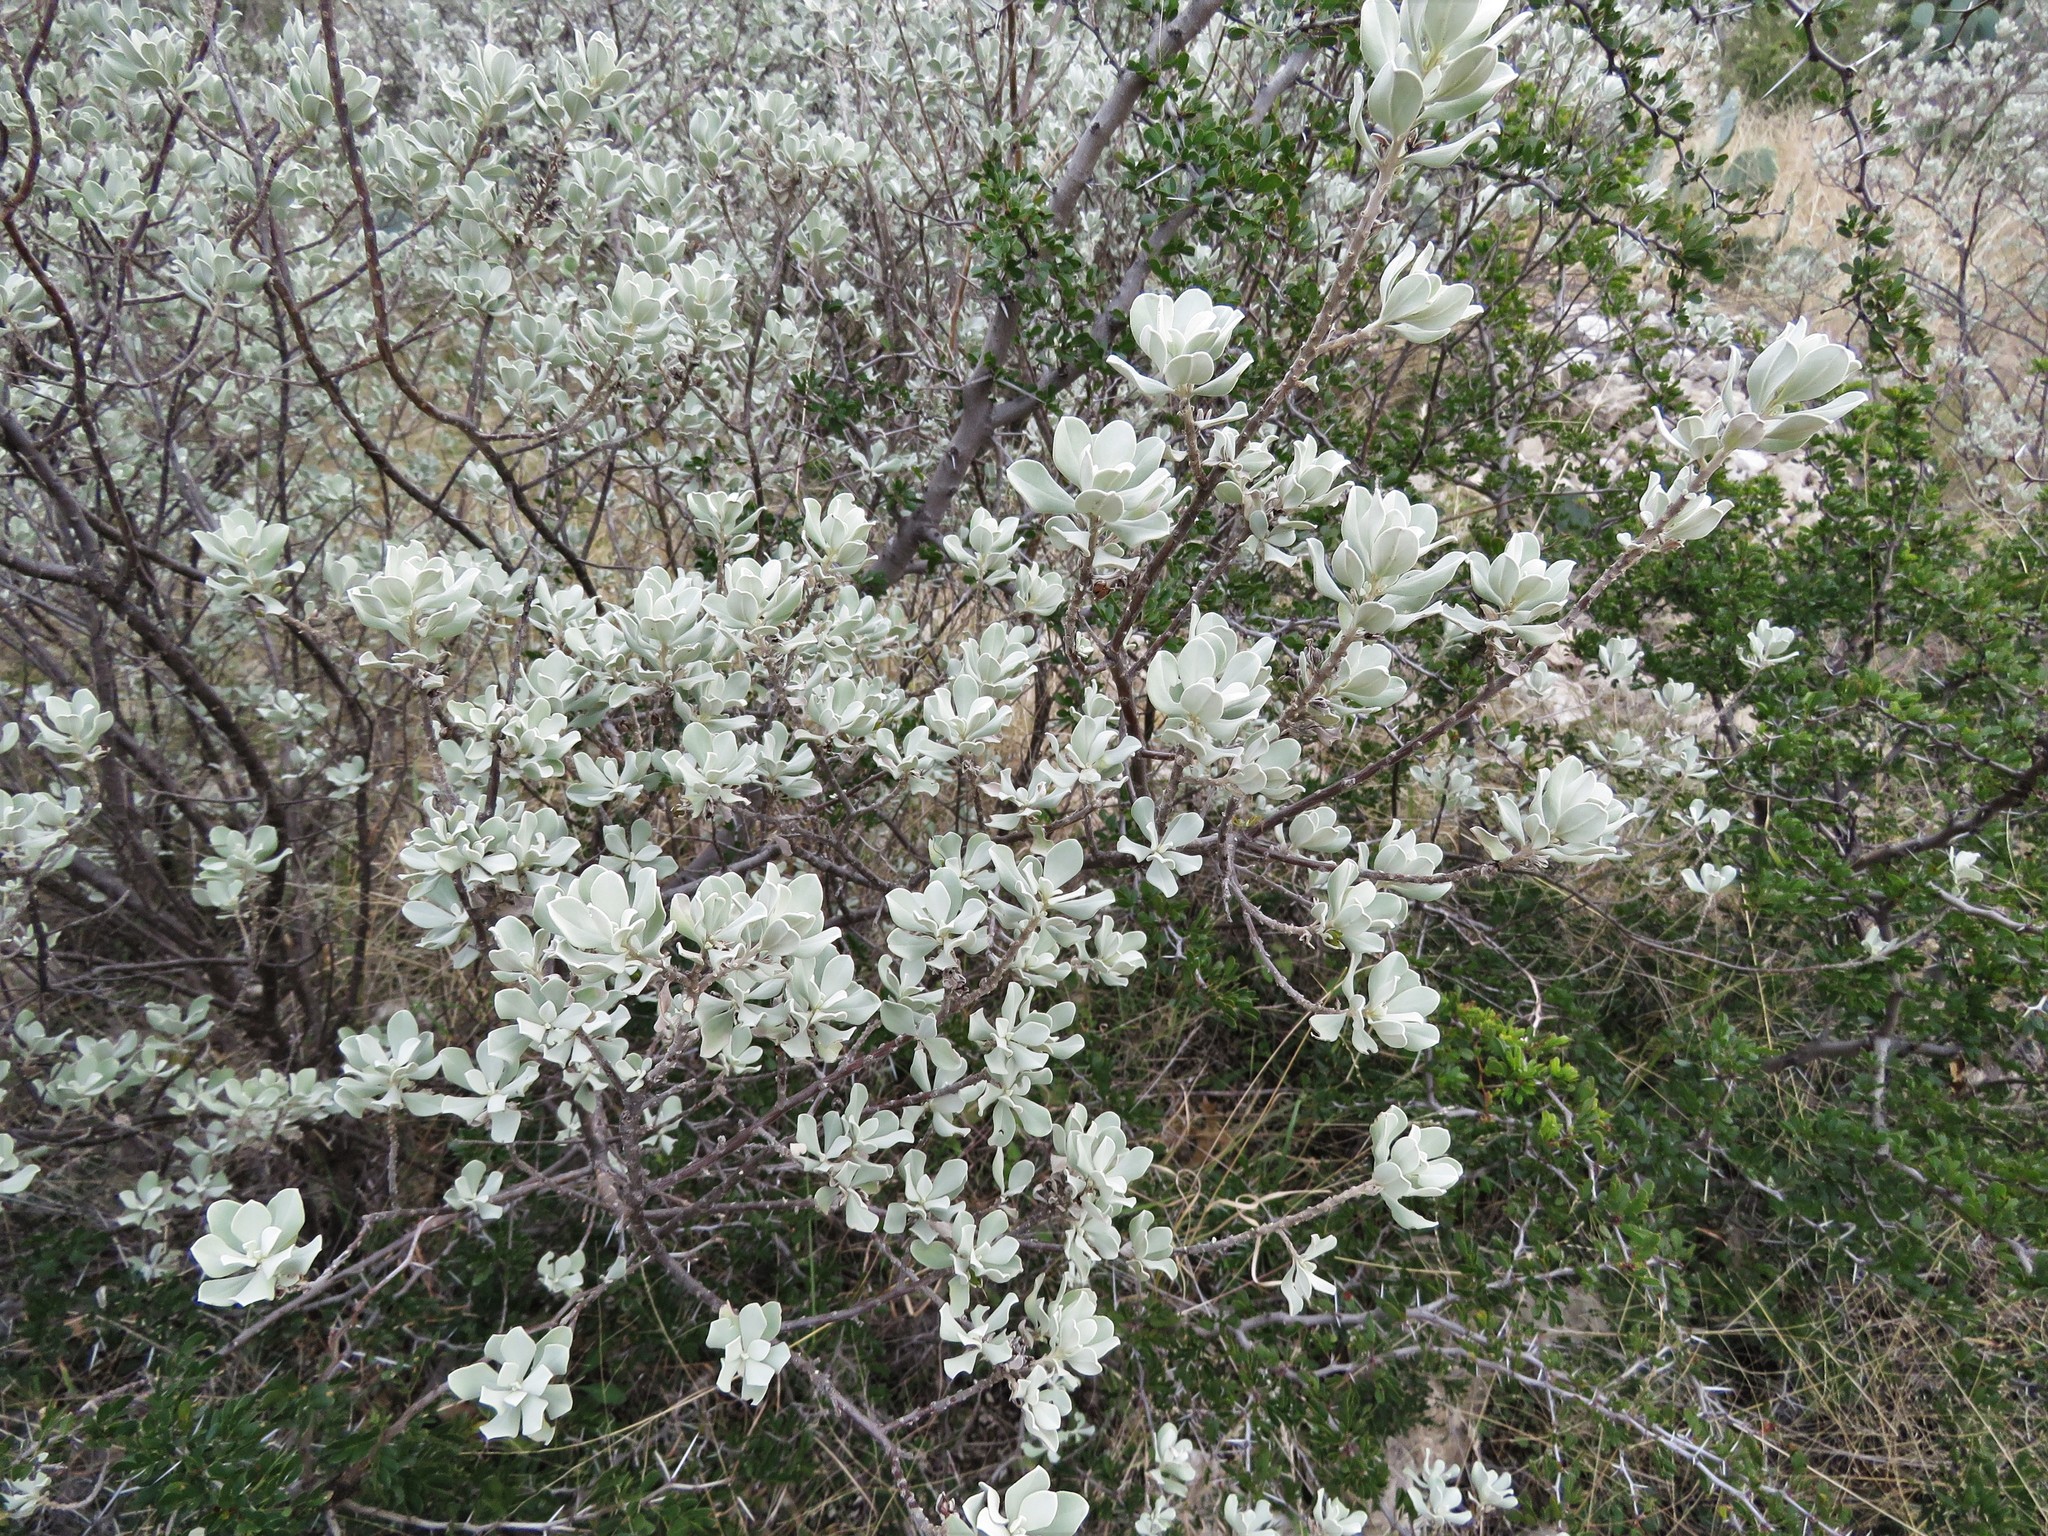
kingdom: Plantae
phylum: Tracheophyta
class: Magnoliopsida
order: Lamiales
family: Scrophulariaceae
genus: Leucophyllum
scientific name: Leucophyllum frutescens
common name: Texas silverleaf
